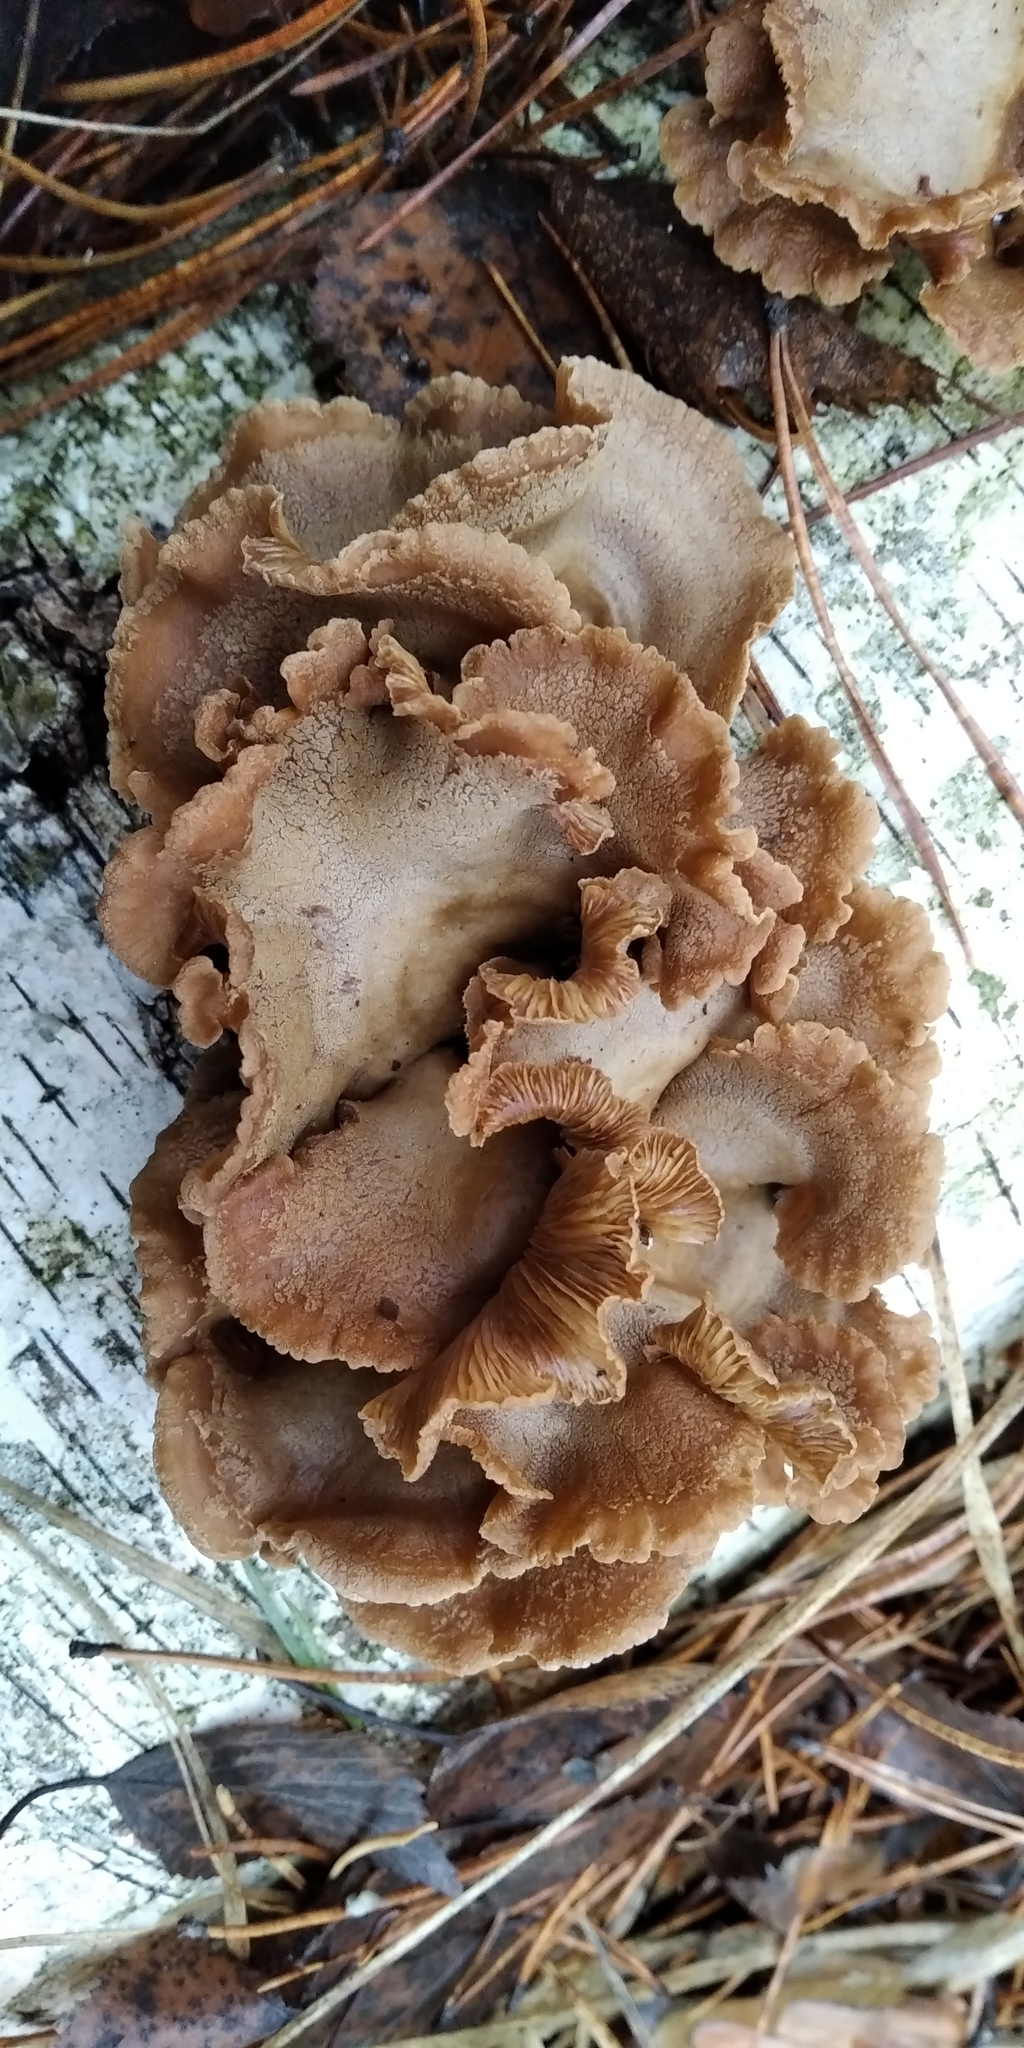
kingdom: Fungi
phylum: Basidiomycota
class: Agaricomycetes
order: Agaricales
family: Mycenaceae
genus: Panellus
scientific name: Panellus stipticus
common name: Bitter oysterling
